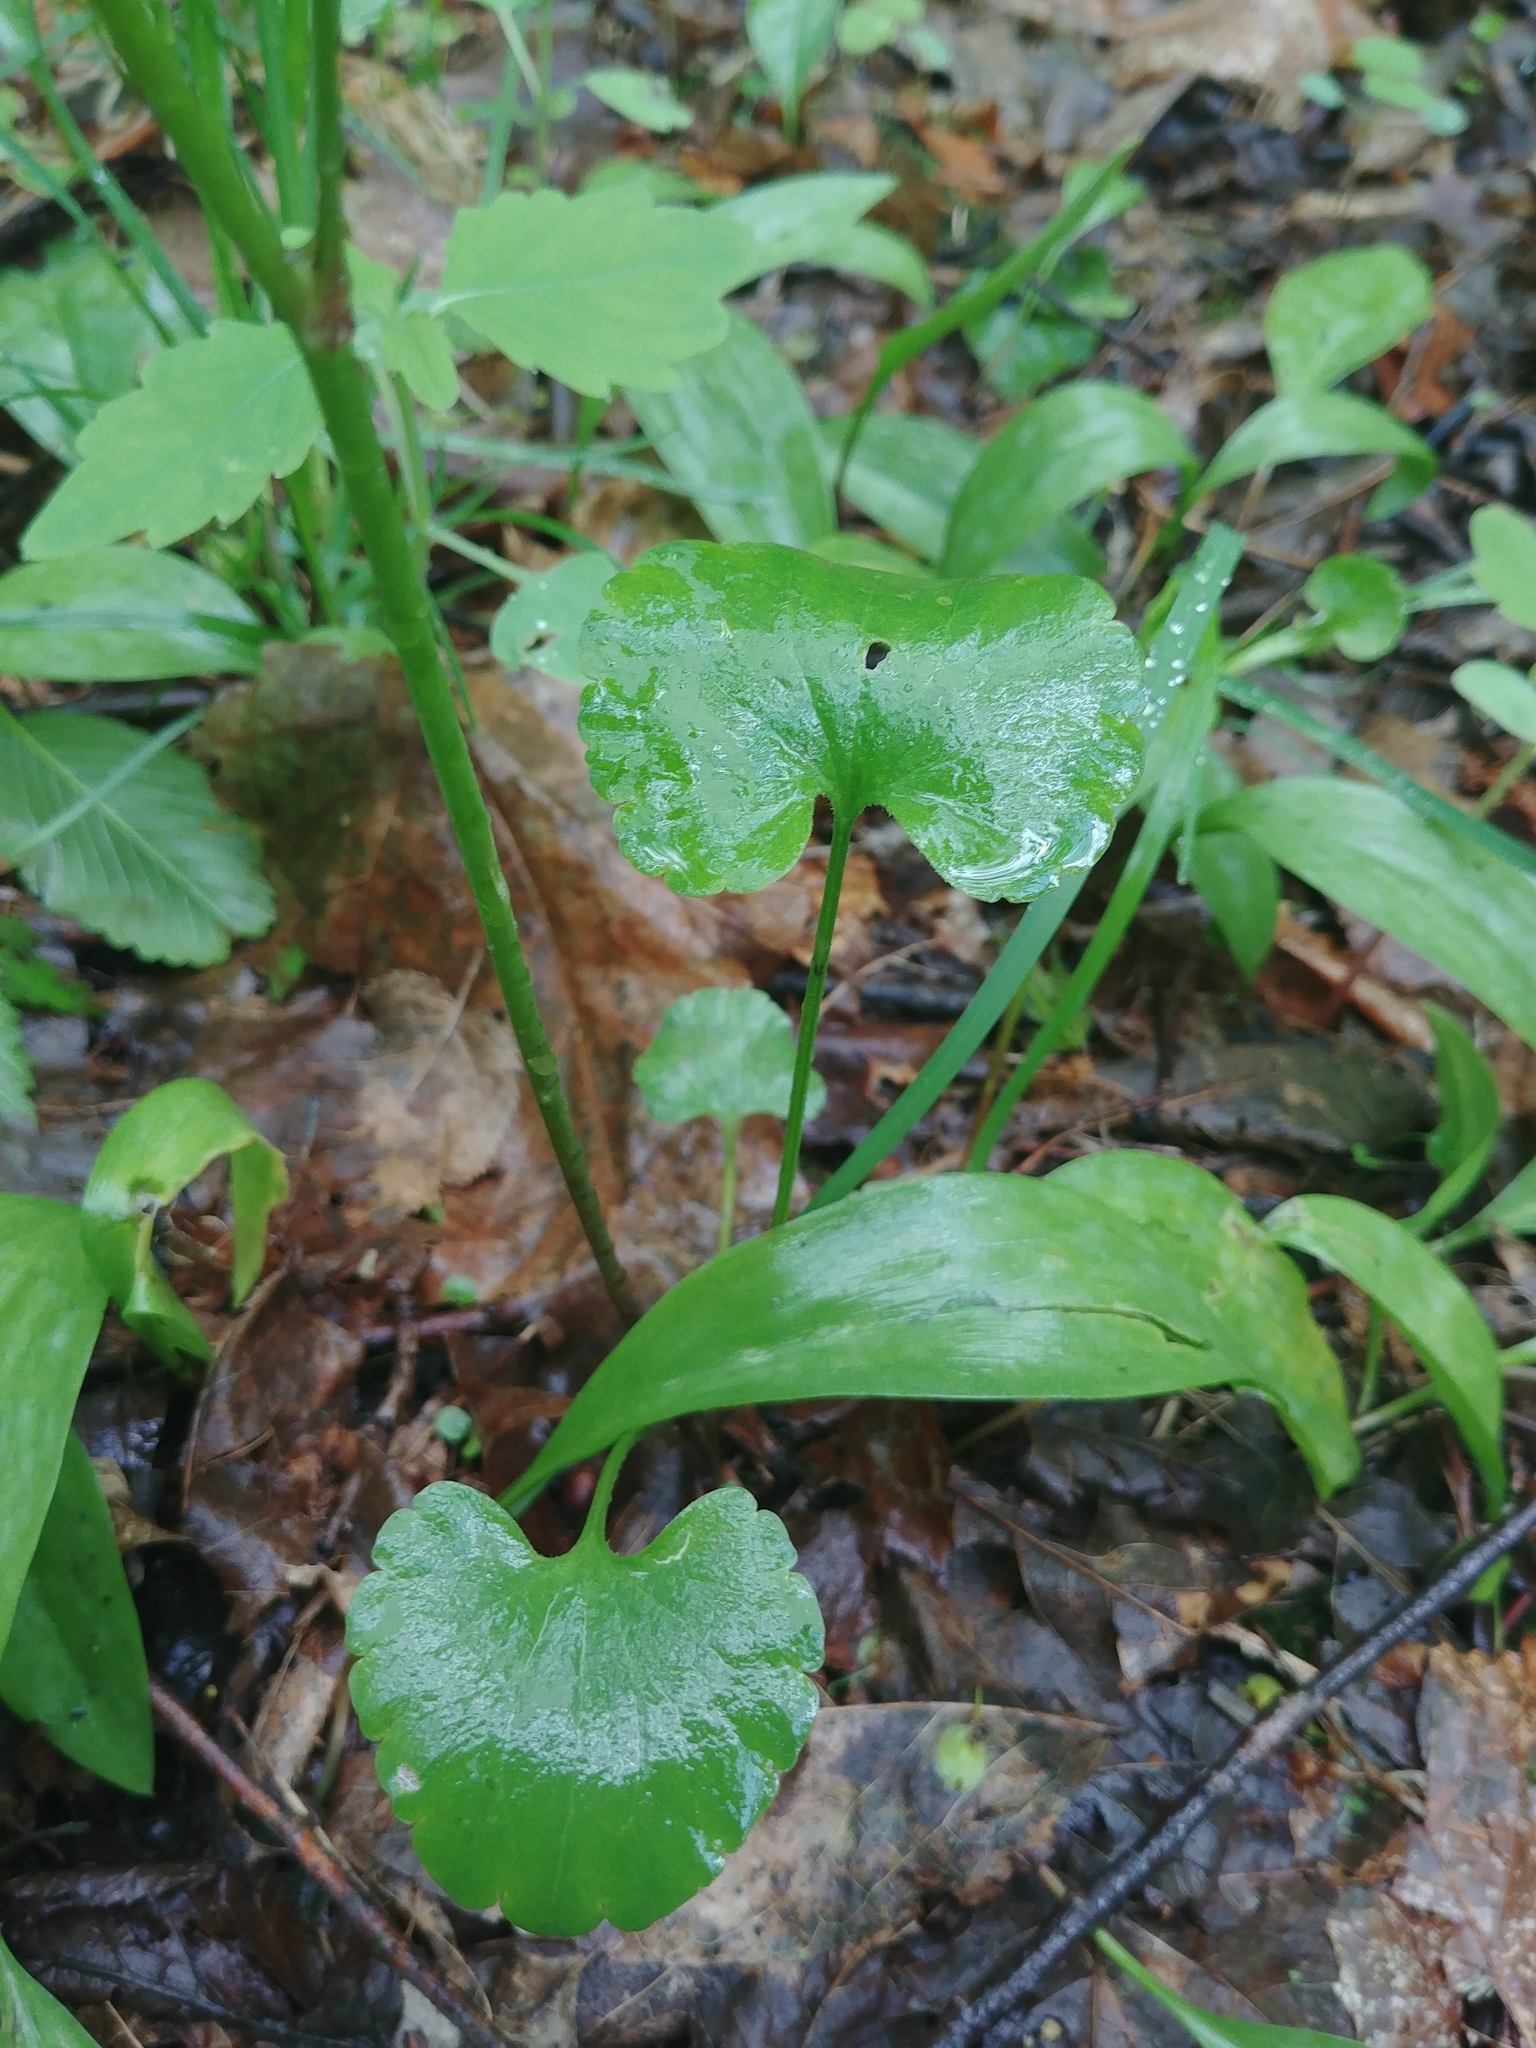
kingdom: Plantae
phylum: Tracheophyta
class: Magnoliopsida
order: Ranunculales
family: Ranunculaceae
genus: Ranunculus
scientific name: Ranunculus abortivus
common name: Early wood buttercup
